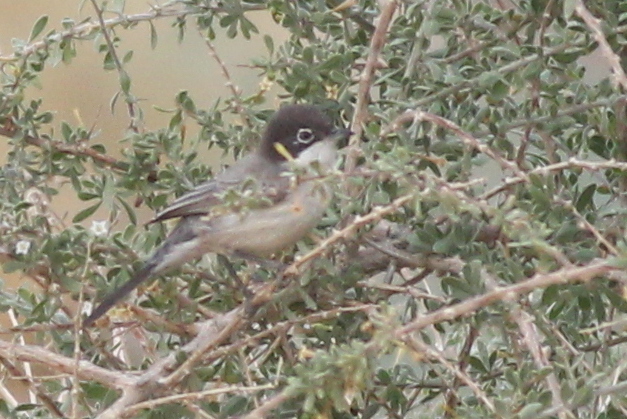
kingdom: Animalia
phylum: Chordata
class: Aves
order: Passeriformes
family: Sylviidae
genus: Sylvia
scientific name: Sylvia leucomelaena
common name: Arabian warbler
